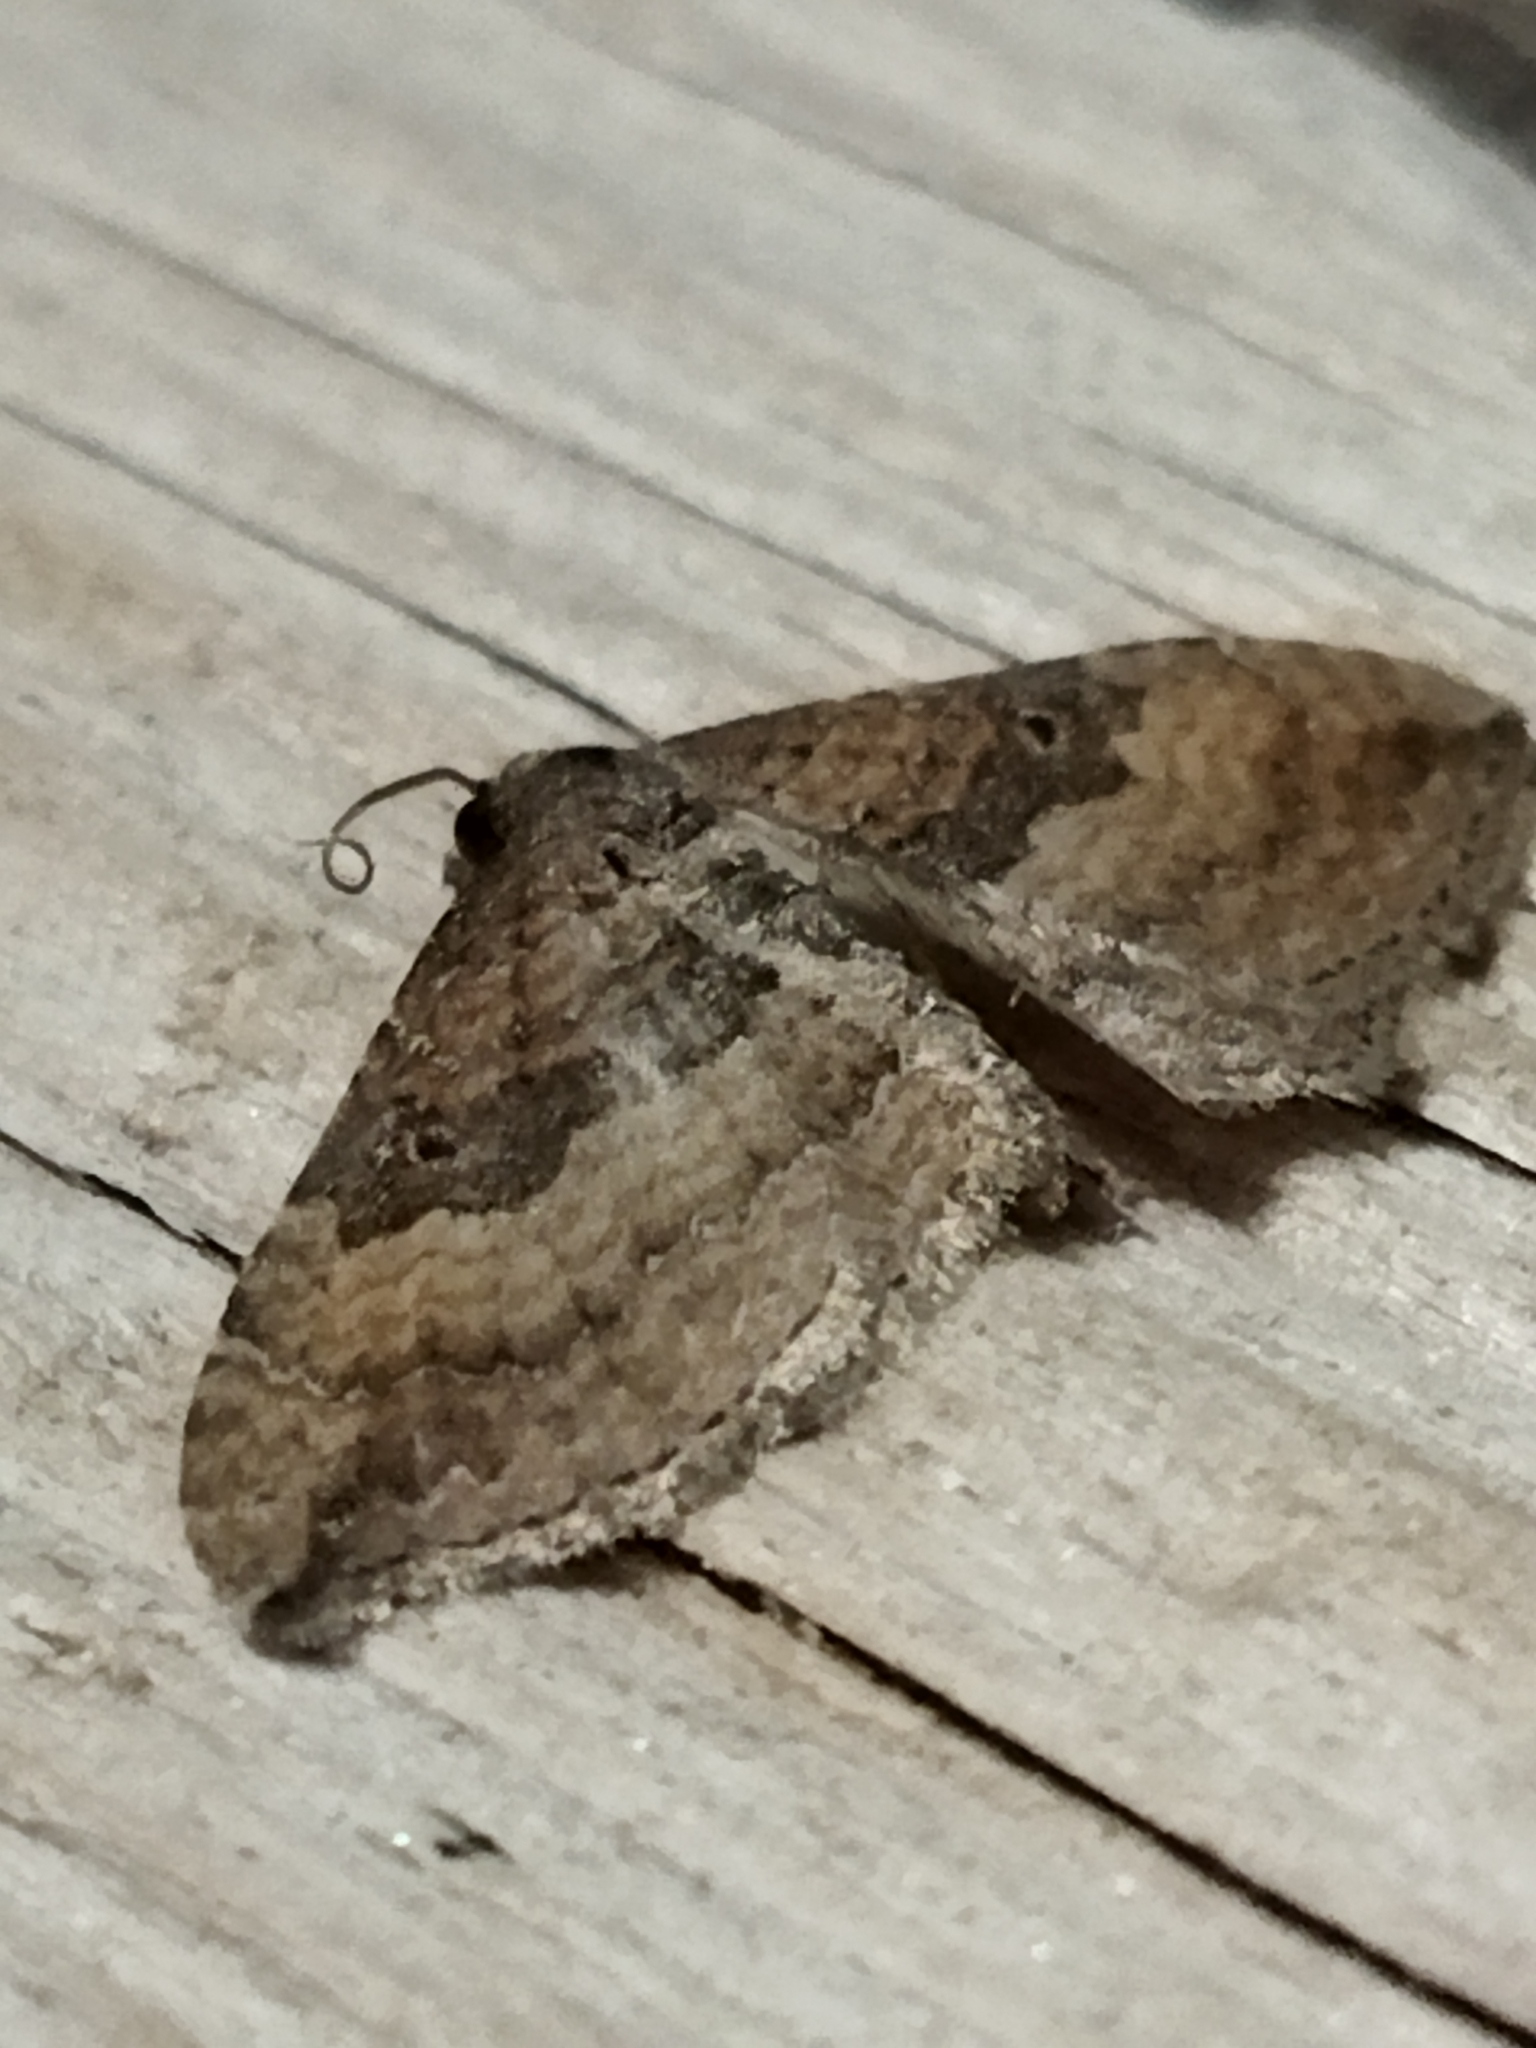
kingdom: Animalia
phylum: Arthropoda
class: Insecta
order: Lepidoptera
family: Geometridae
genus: Orthonama
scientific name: Orthonama obstipata
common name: The gem
